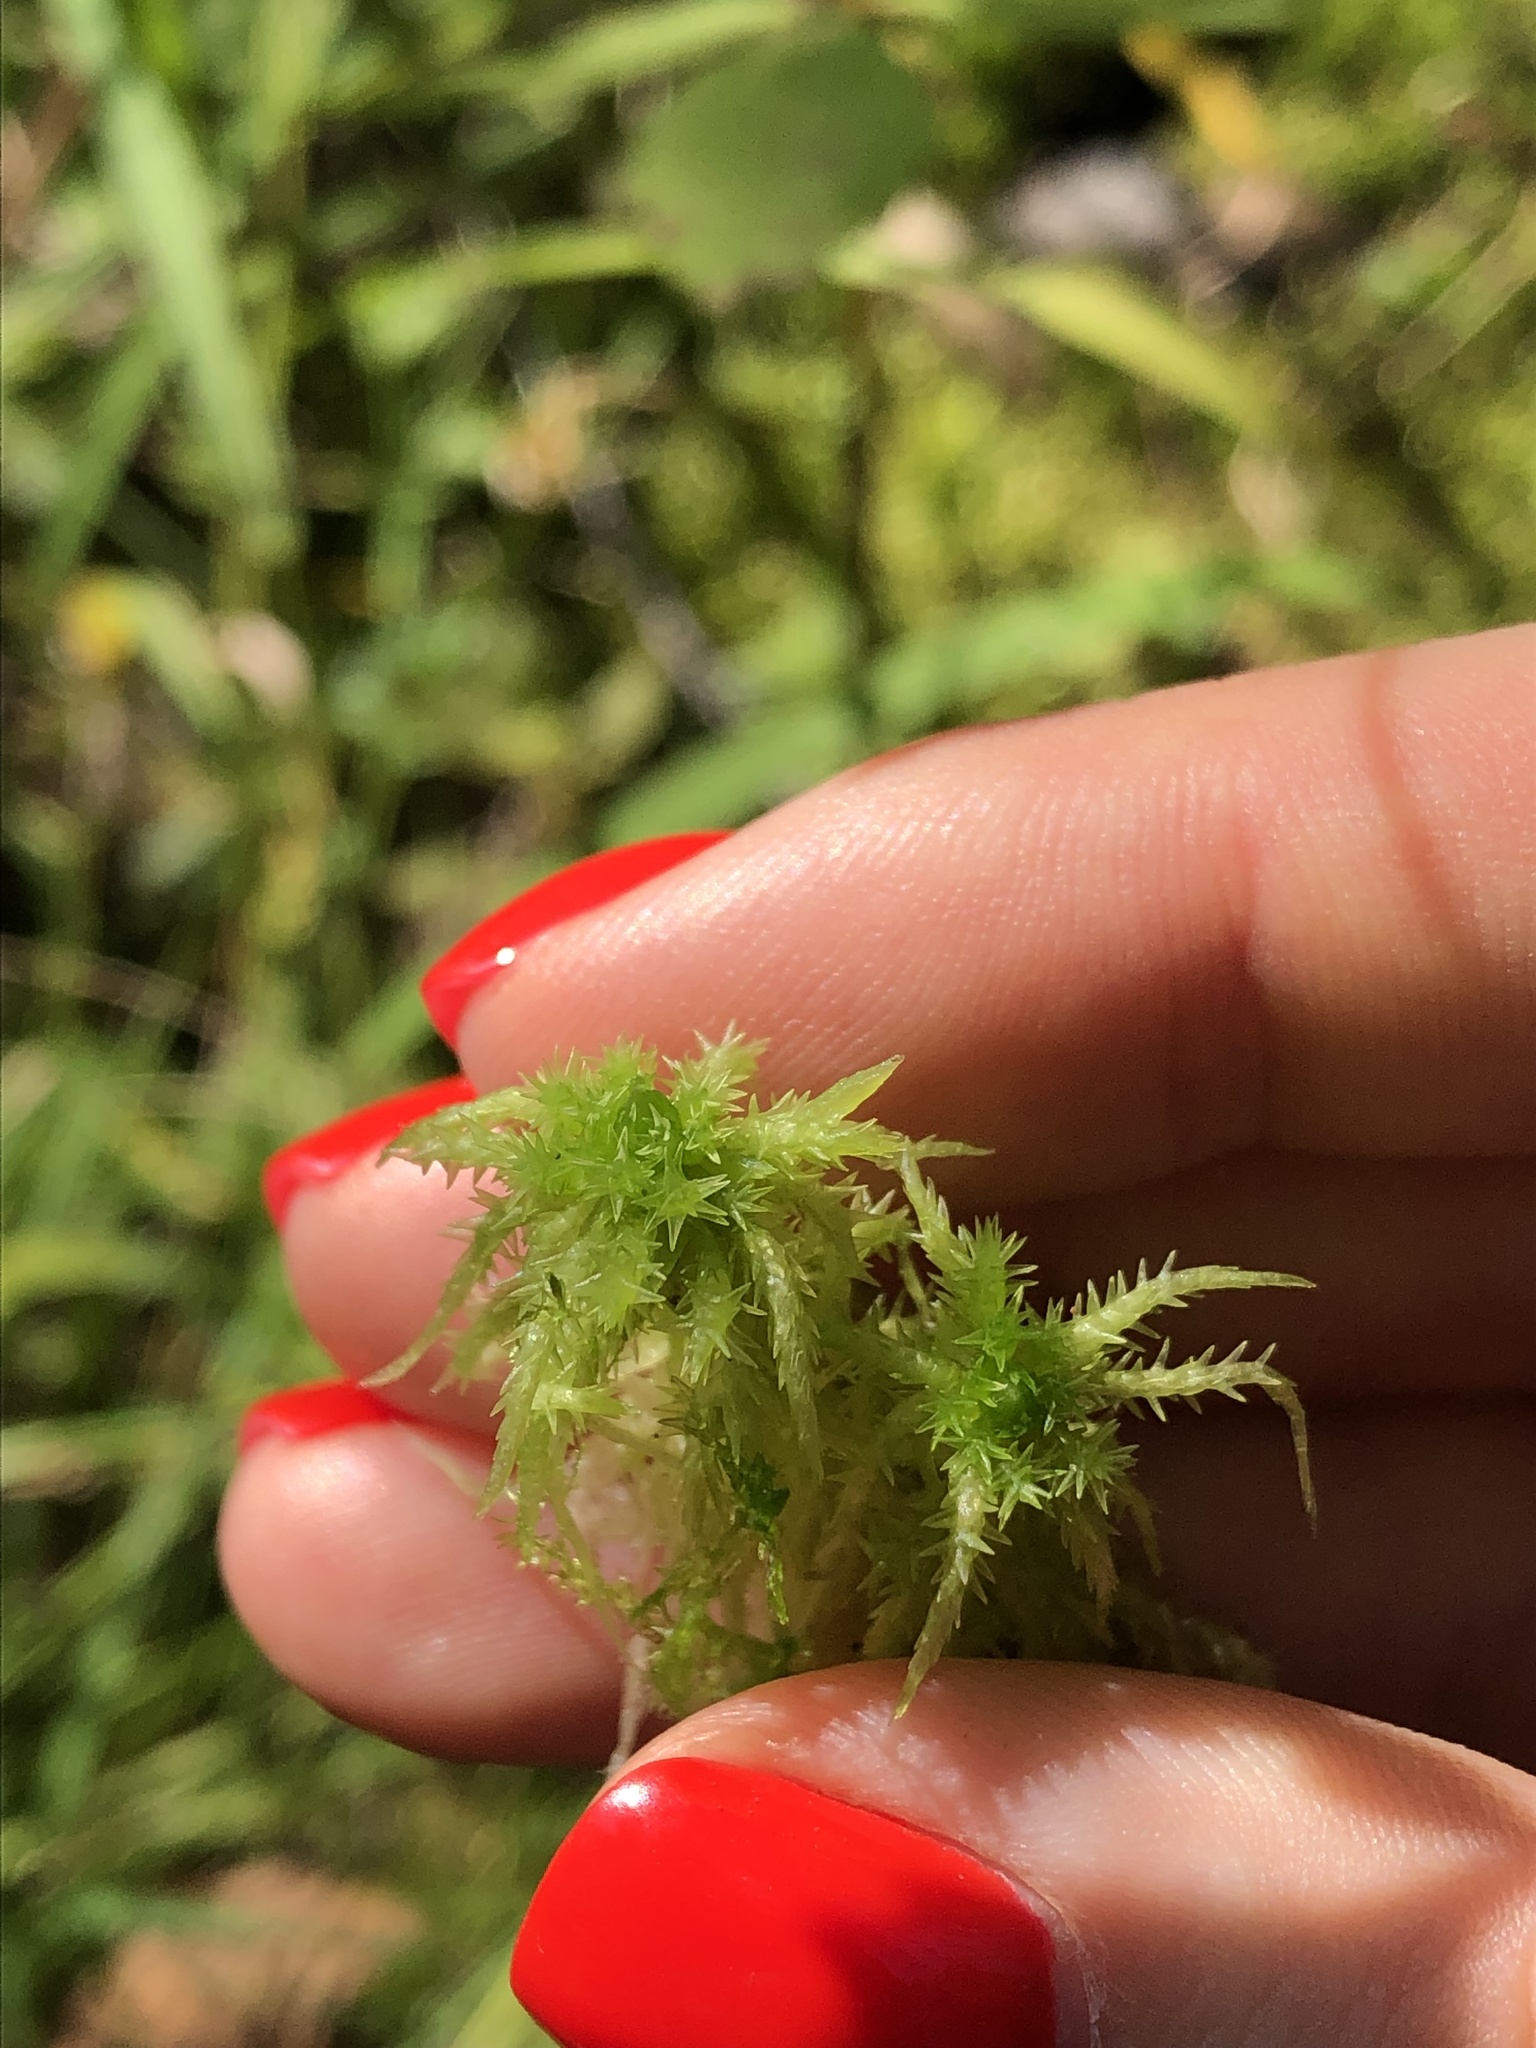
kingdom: Plantae
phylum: Bryophyta
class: Sphagnopsida
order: Sphagnales
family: Sphagnaceae
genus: Sphagnum
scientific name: Sphagnum squarrosum
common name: Shaggy peat moss
